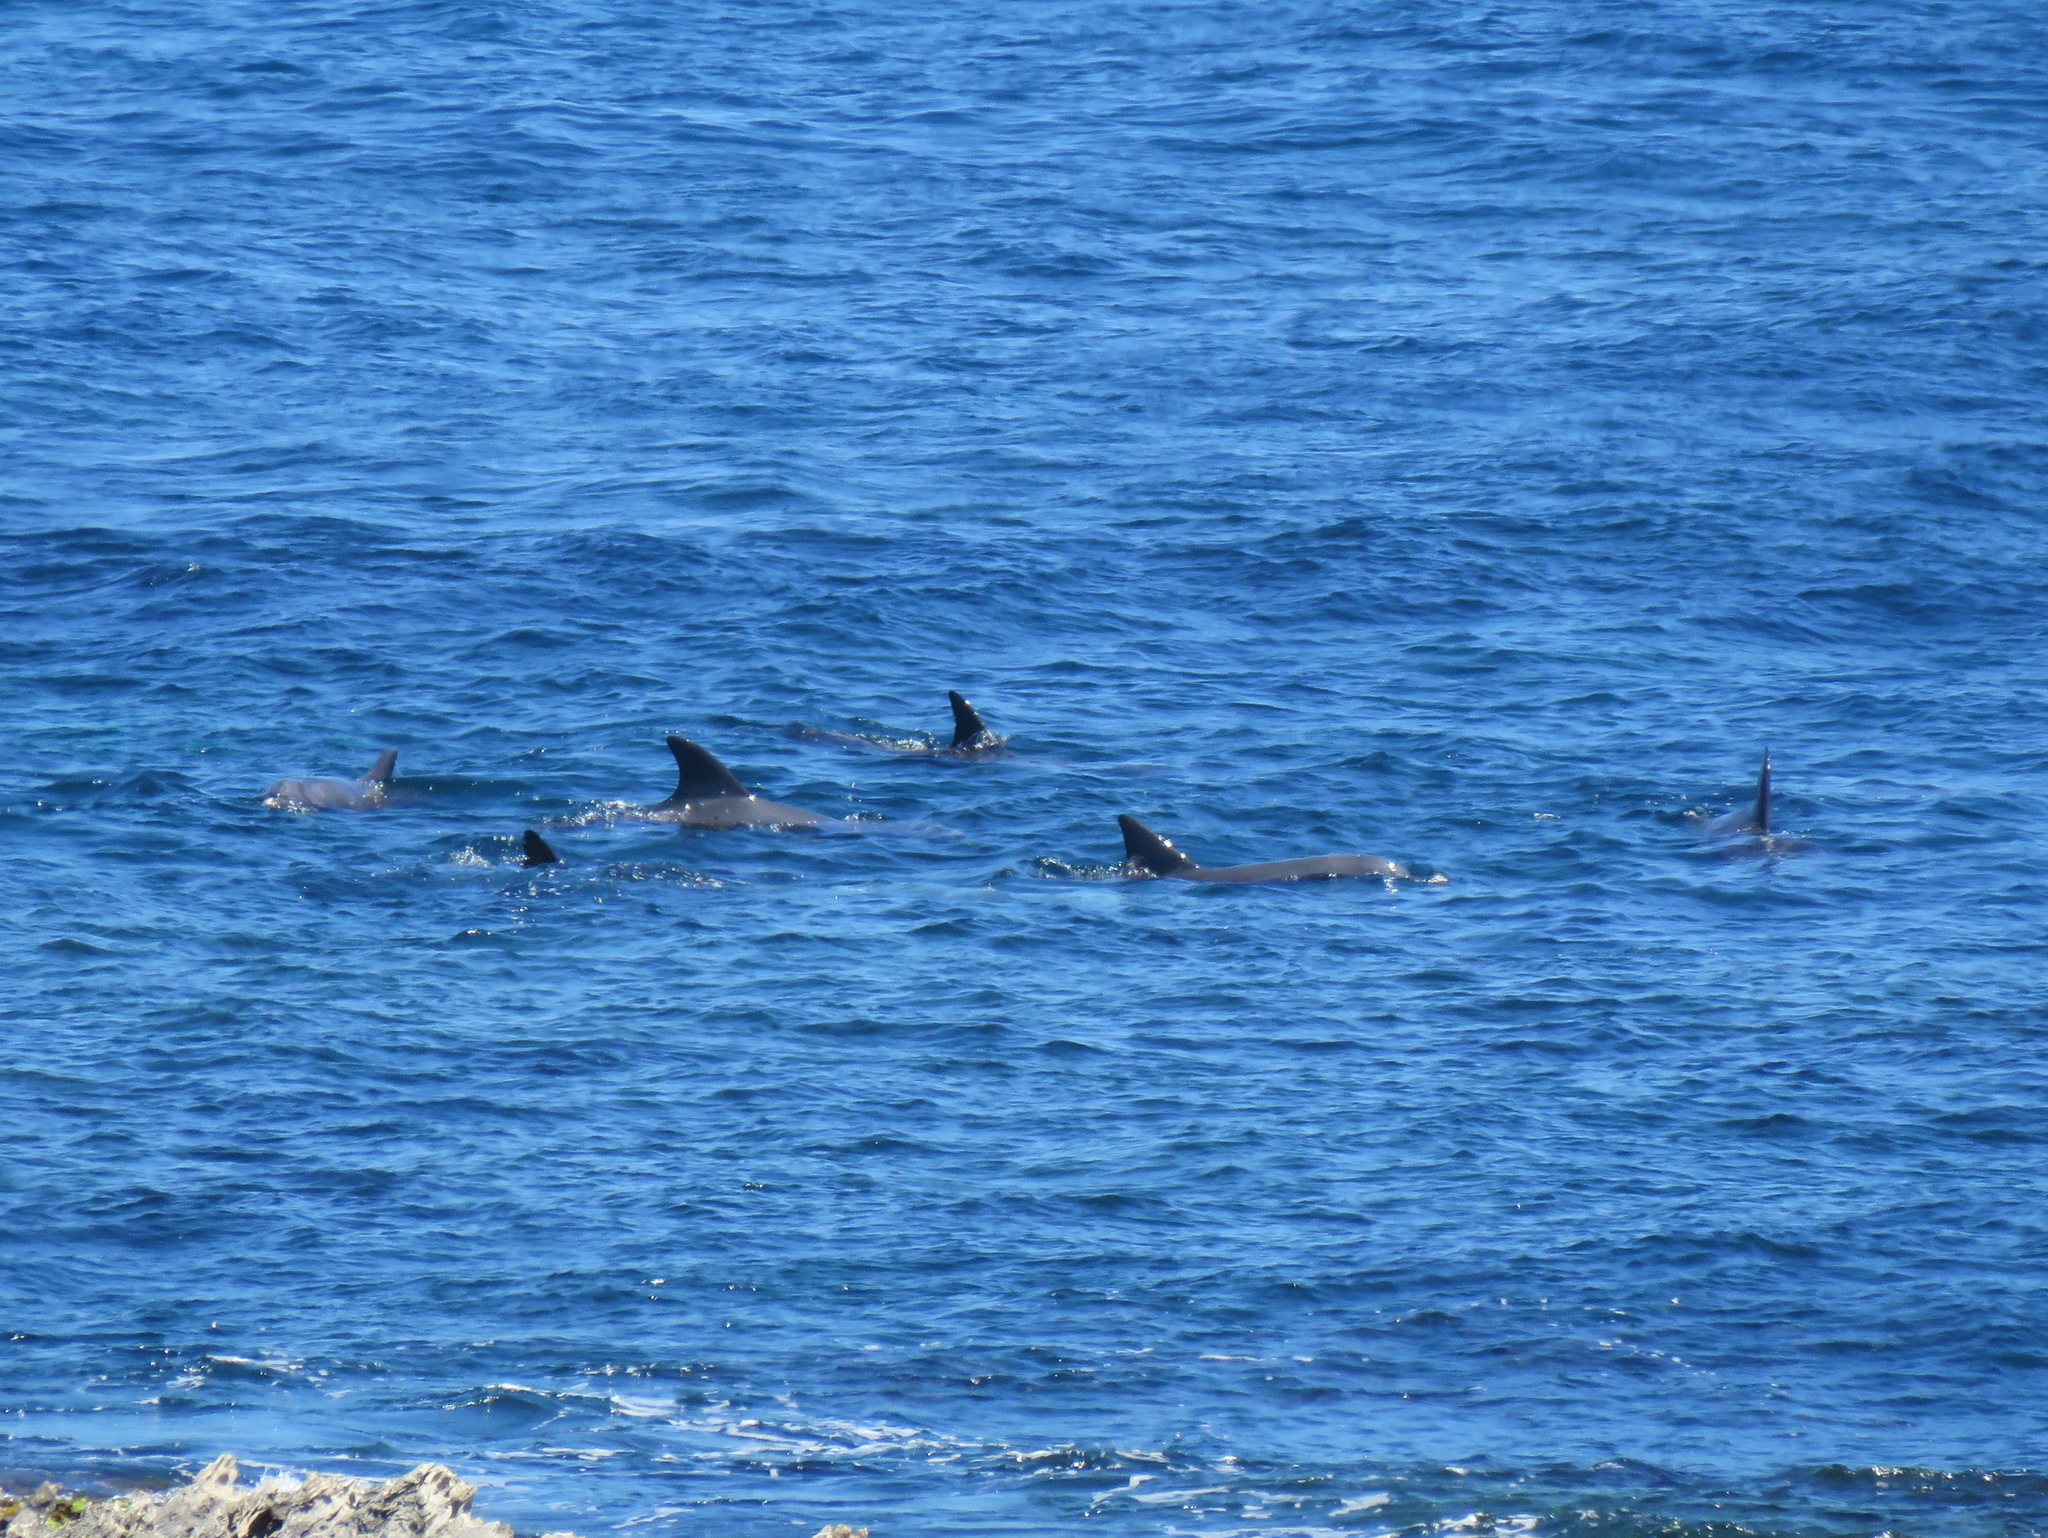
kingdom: Animalia
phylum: Chordata
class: Mammalia
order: Cetacea
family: Delphinidae
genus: Tursiops
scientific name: Tursiops truncatus
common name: Bottlenose dolphin
